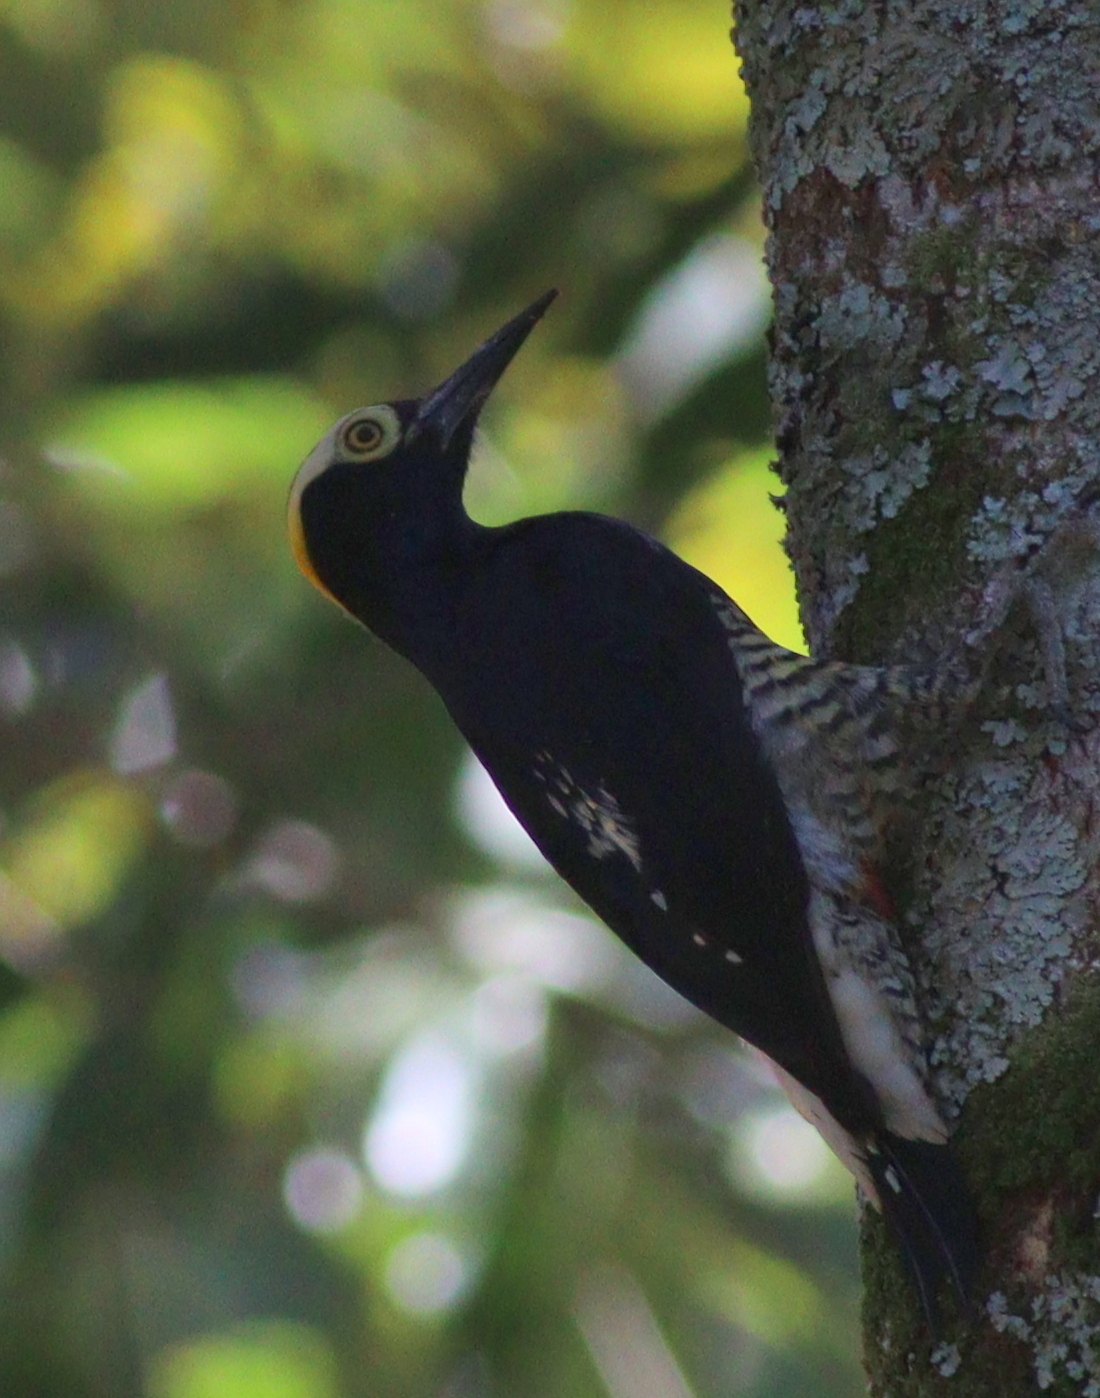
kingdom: Animalia
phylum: Chordata
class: Aves
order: Piciformes
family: Picidae
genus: Melanerpes
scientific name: Melanerpes cruentatus
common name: Yellow-tufted woodpecker
